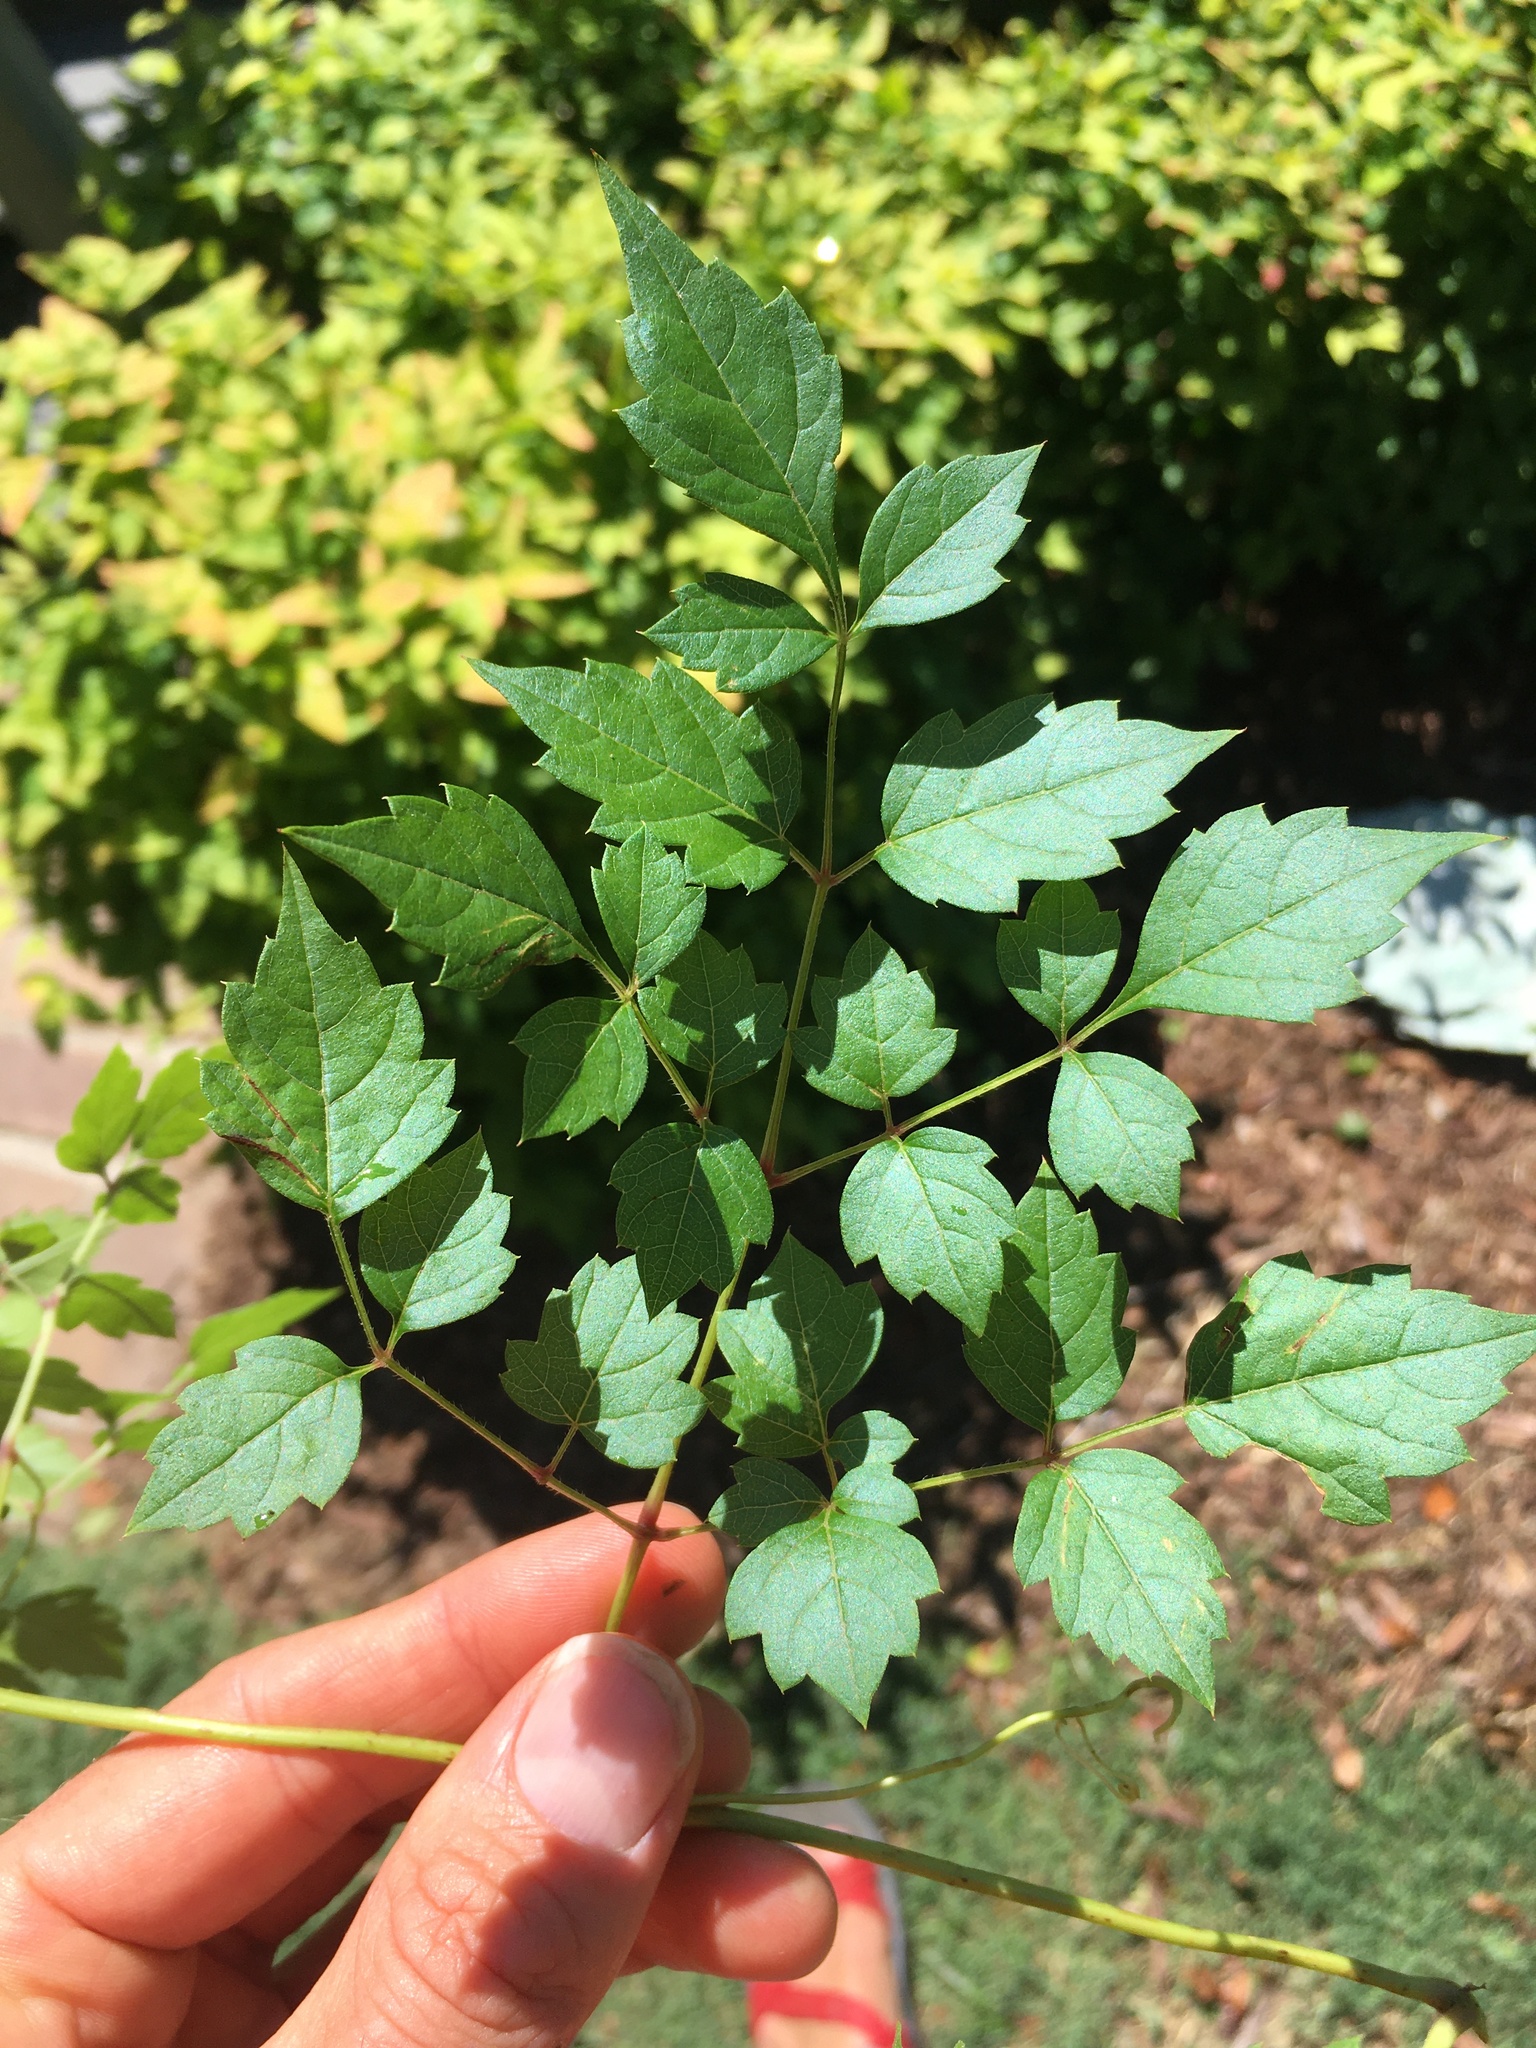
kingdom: Plantae
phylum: Tracheophyta
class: Magnoliopsida
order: Lamiales
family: Bignoniaceae
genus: Campsis
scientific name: Campsis radicans
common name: Trumpet-creeper
